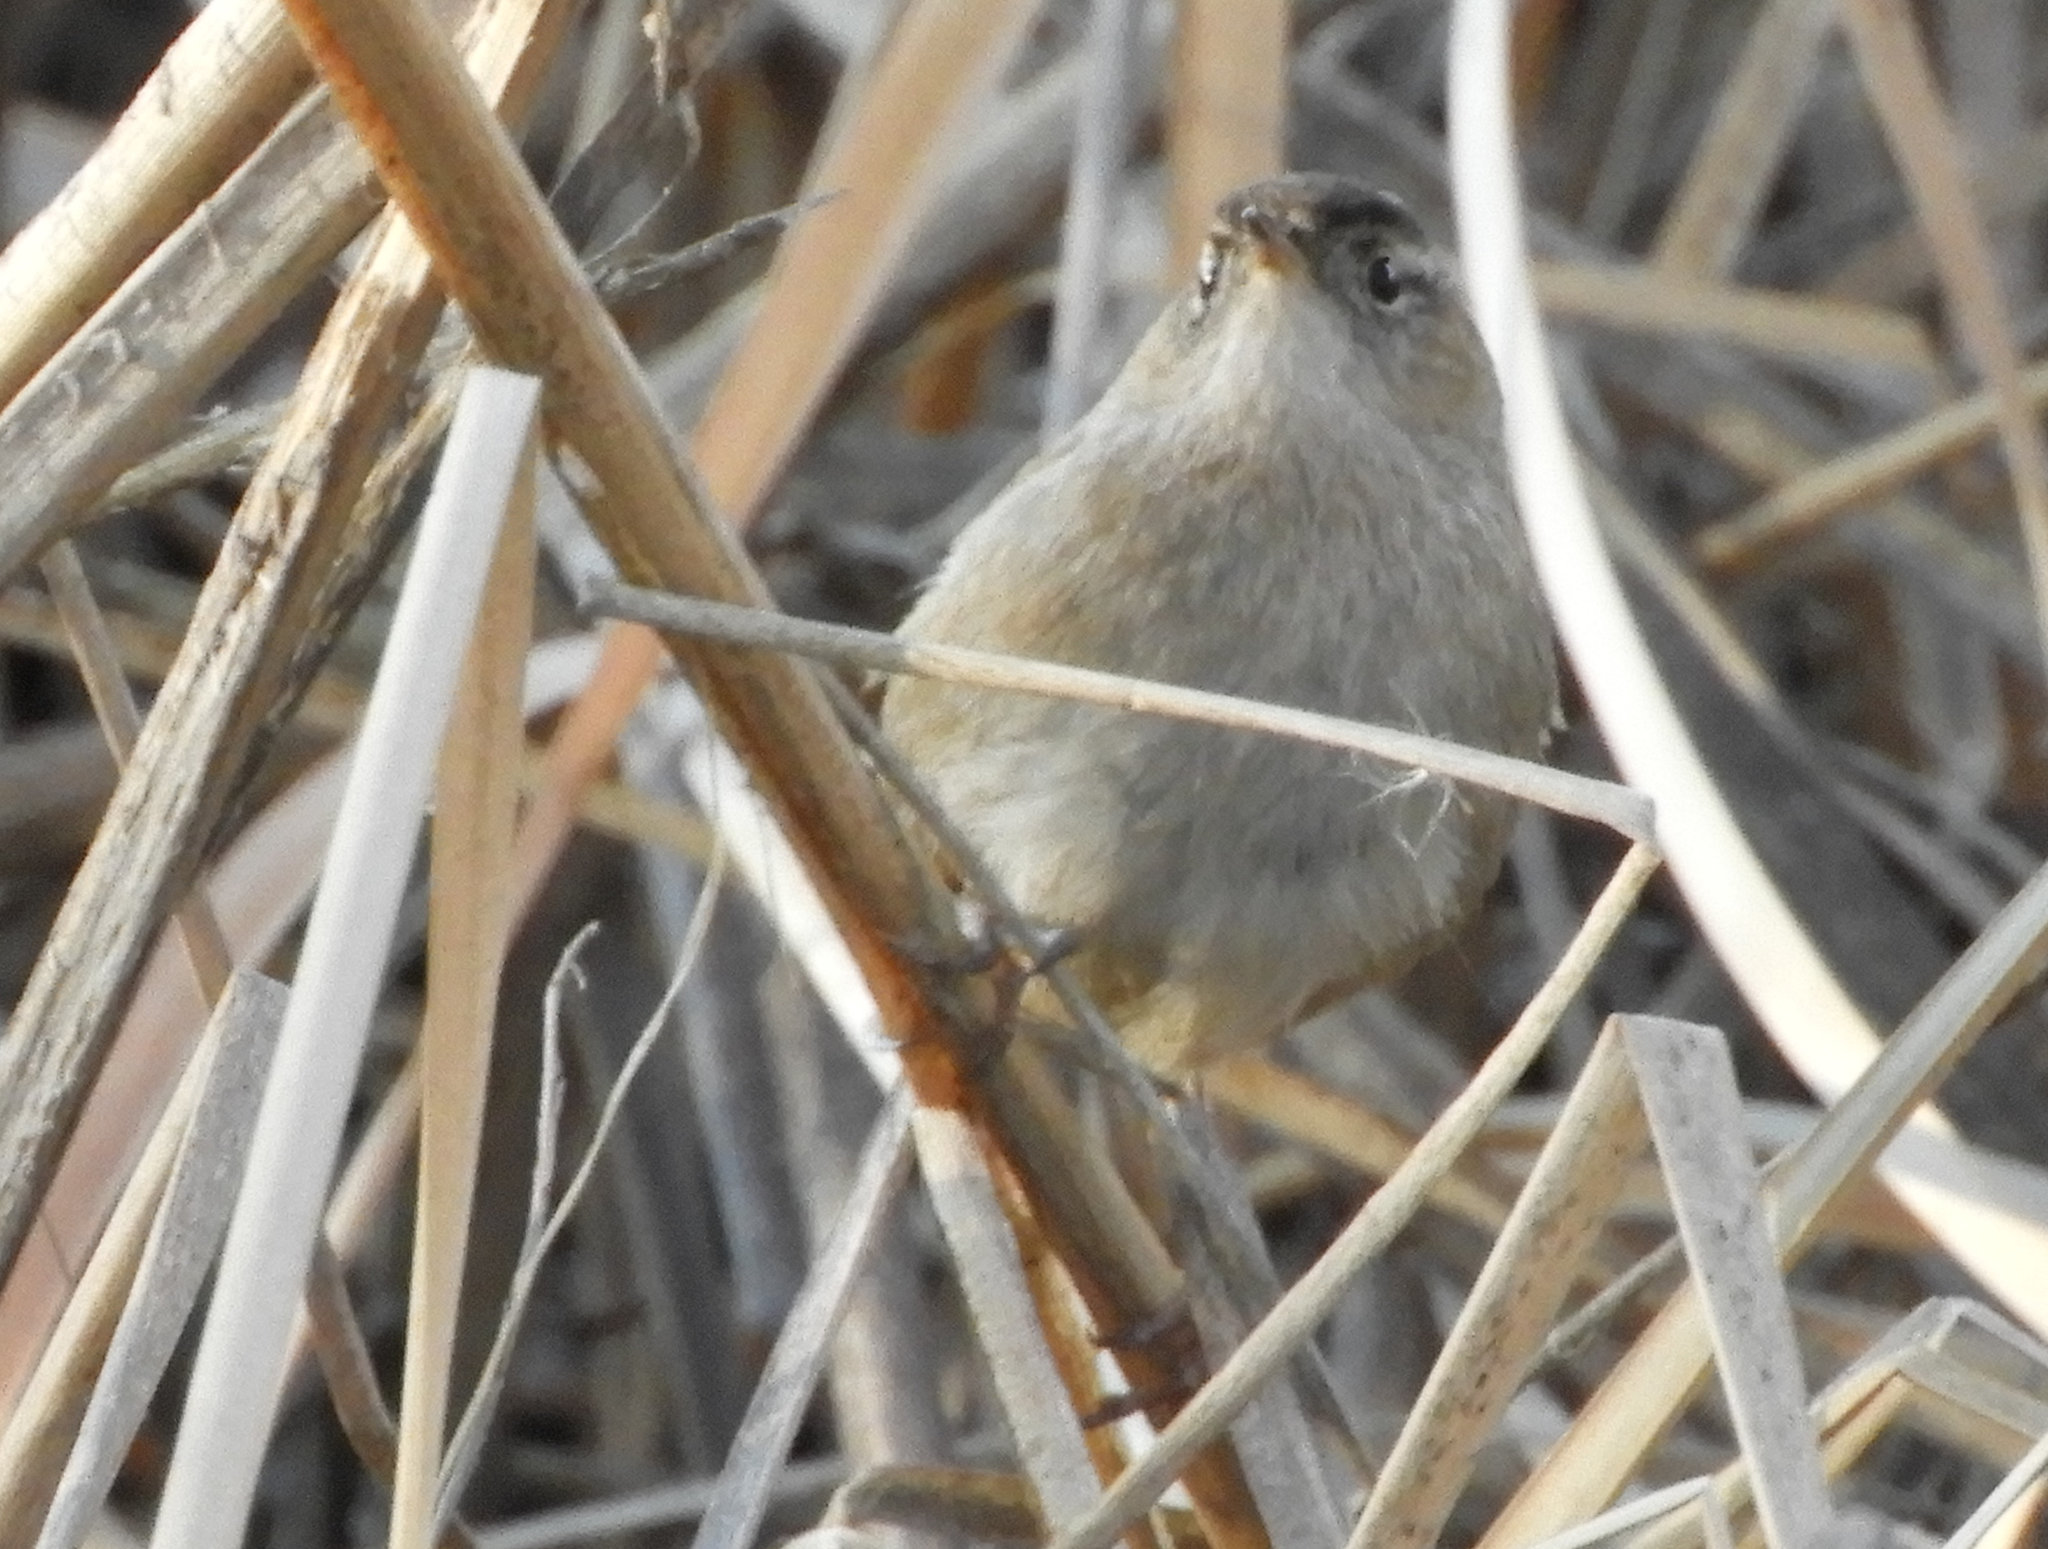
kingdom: Animalia
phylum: Chordata
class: Aves
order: Passeriformes
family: Troglodytidae
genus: Cistothorus
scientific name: Cistothorus palustris
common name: Marsh wren
